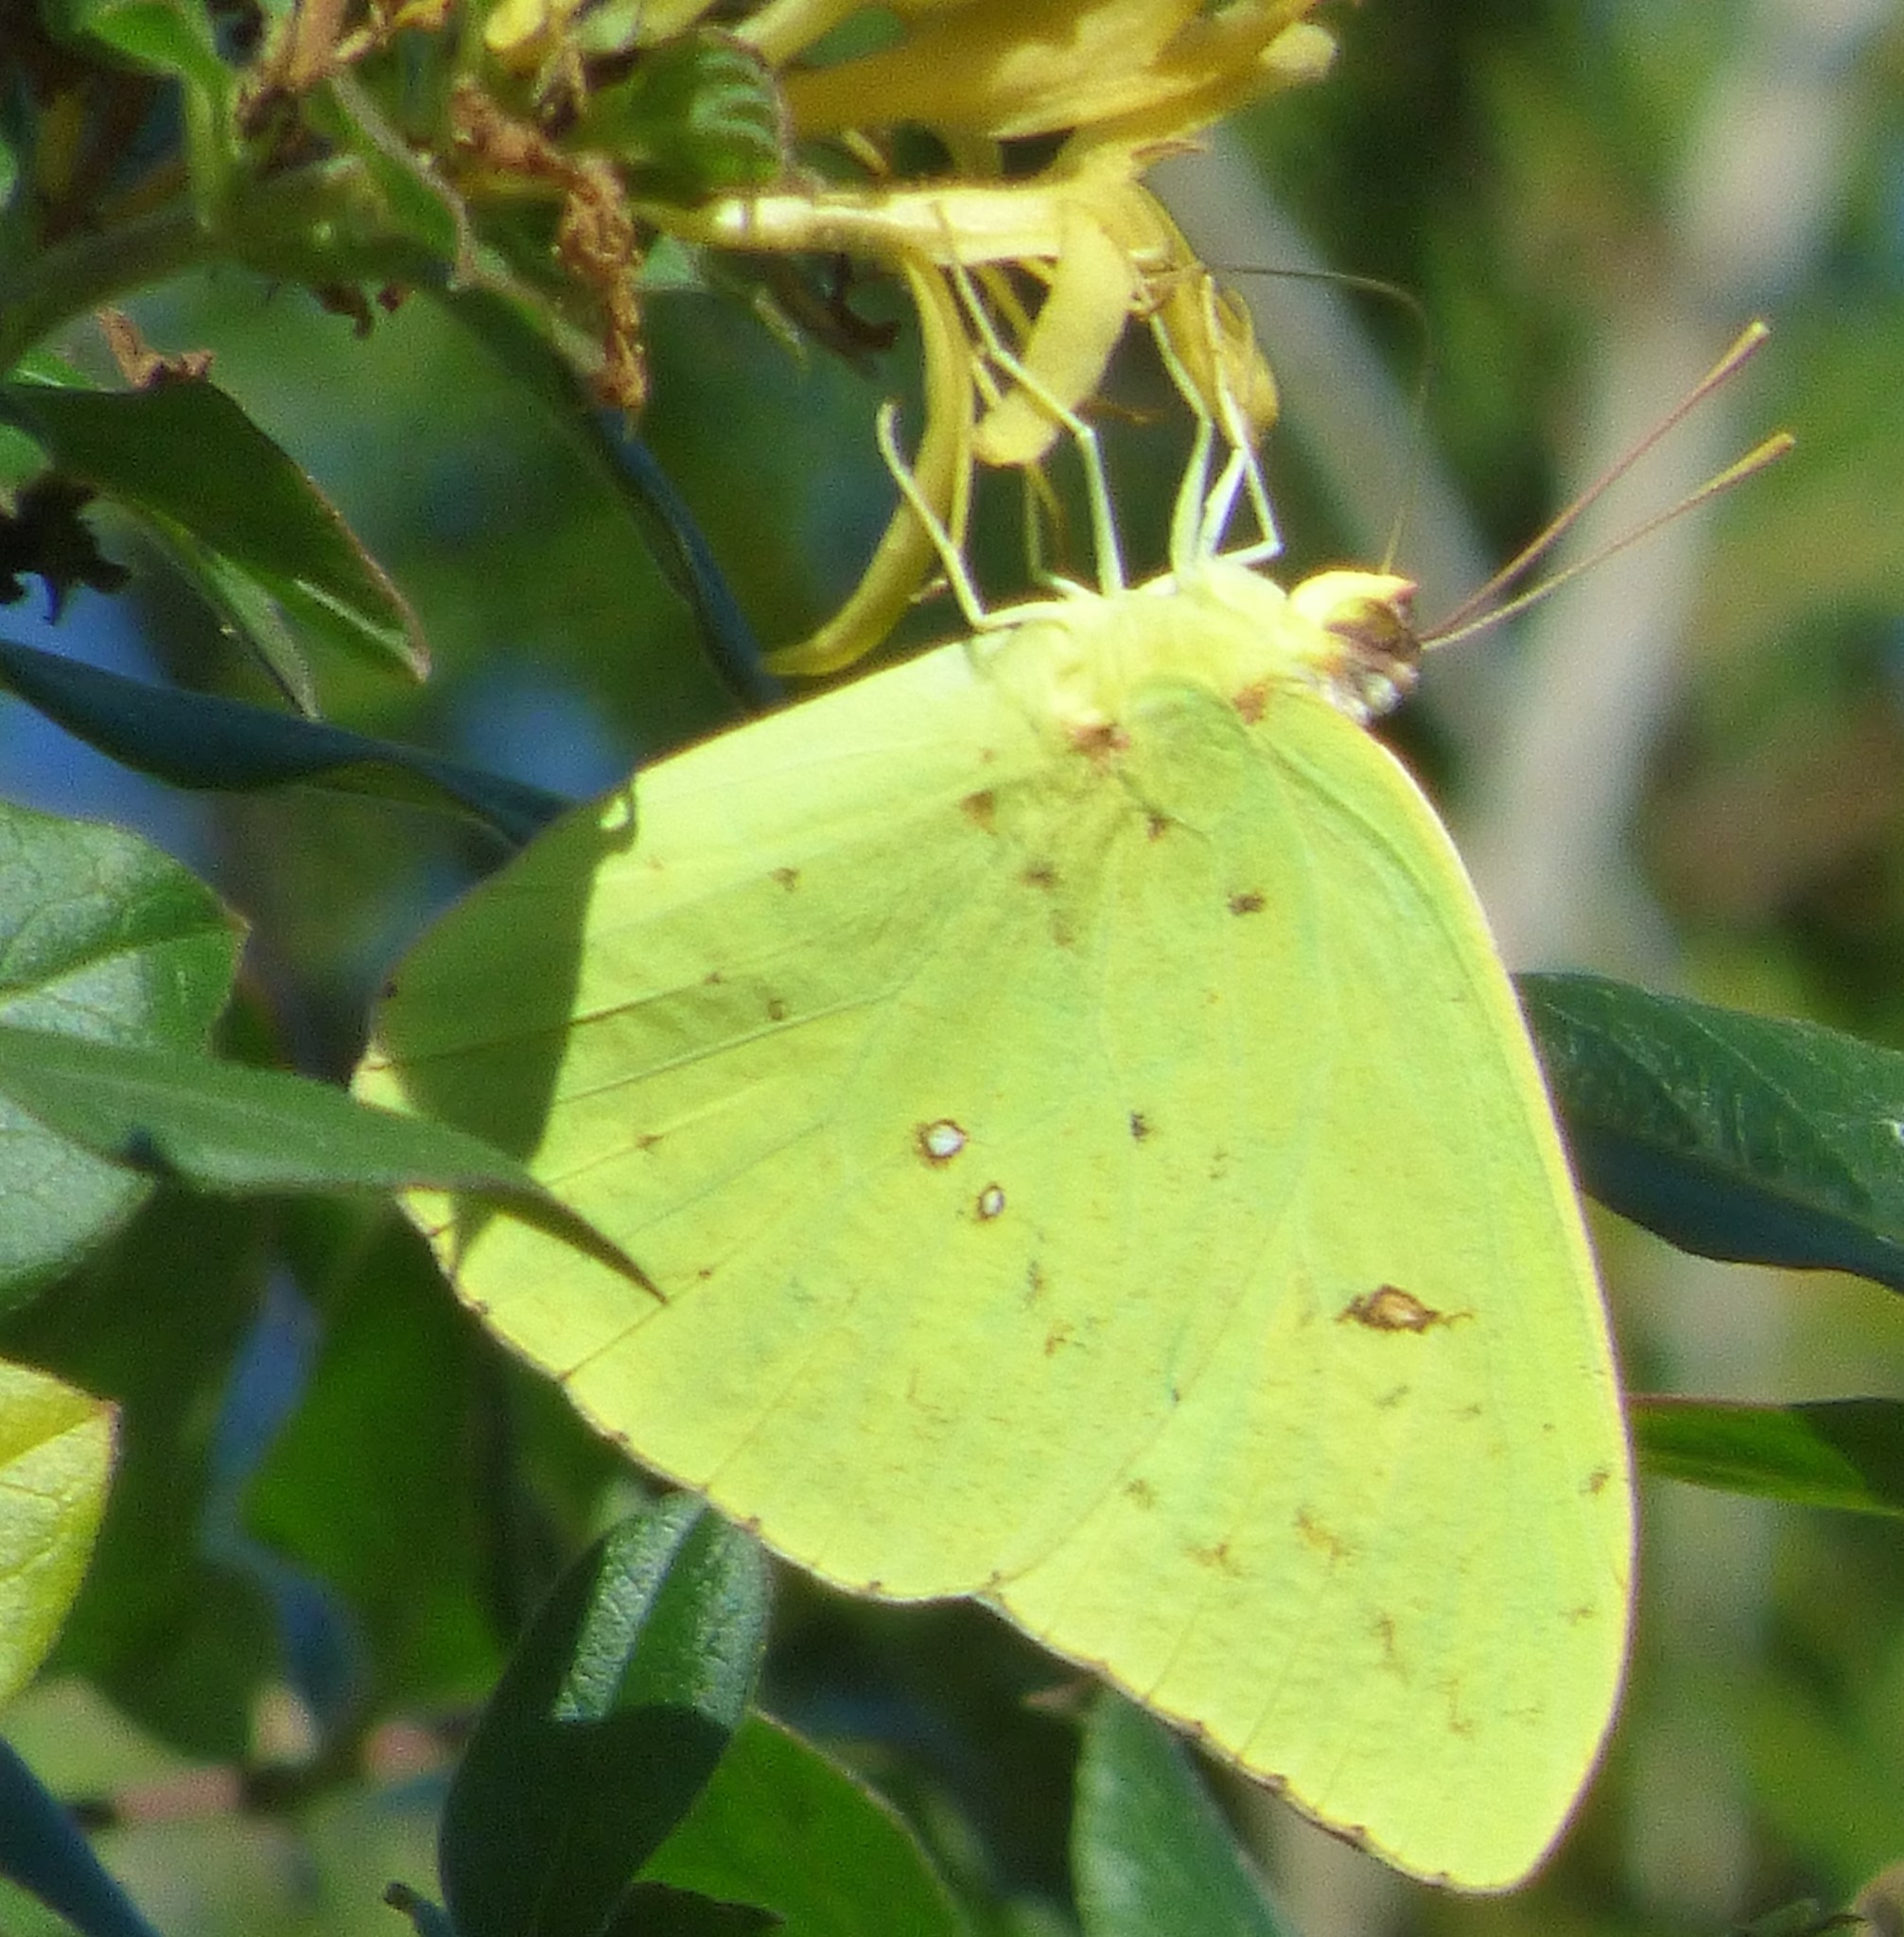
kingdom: Animalia
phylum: Arthropoda
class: Insecta
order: Lepidoptera
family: Pieridae
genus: Phoebis
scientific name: Phoebis sennae
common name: Cloudless sulphur
